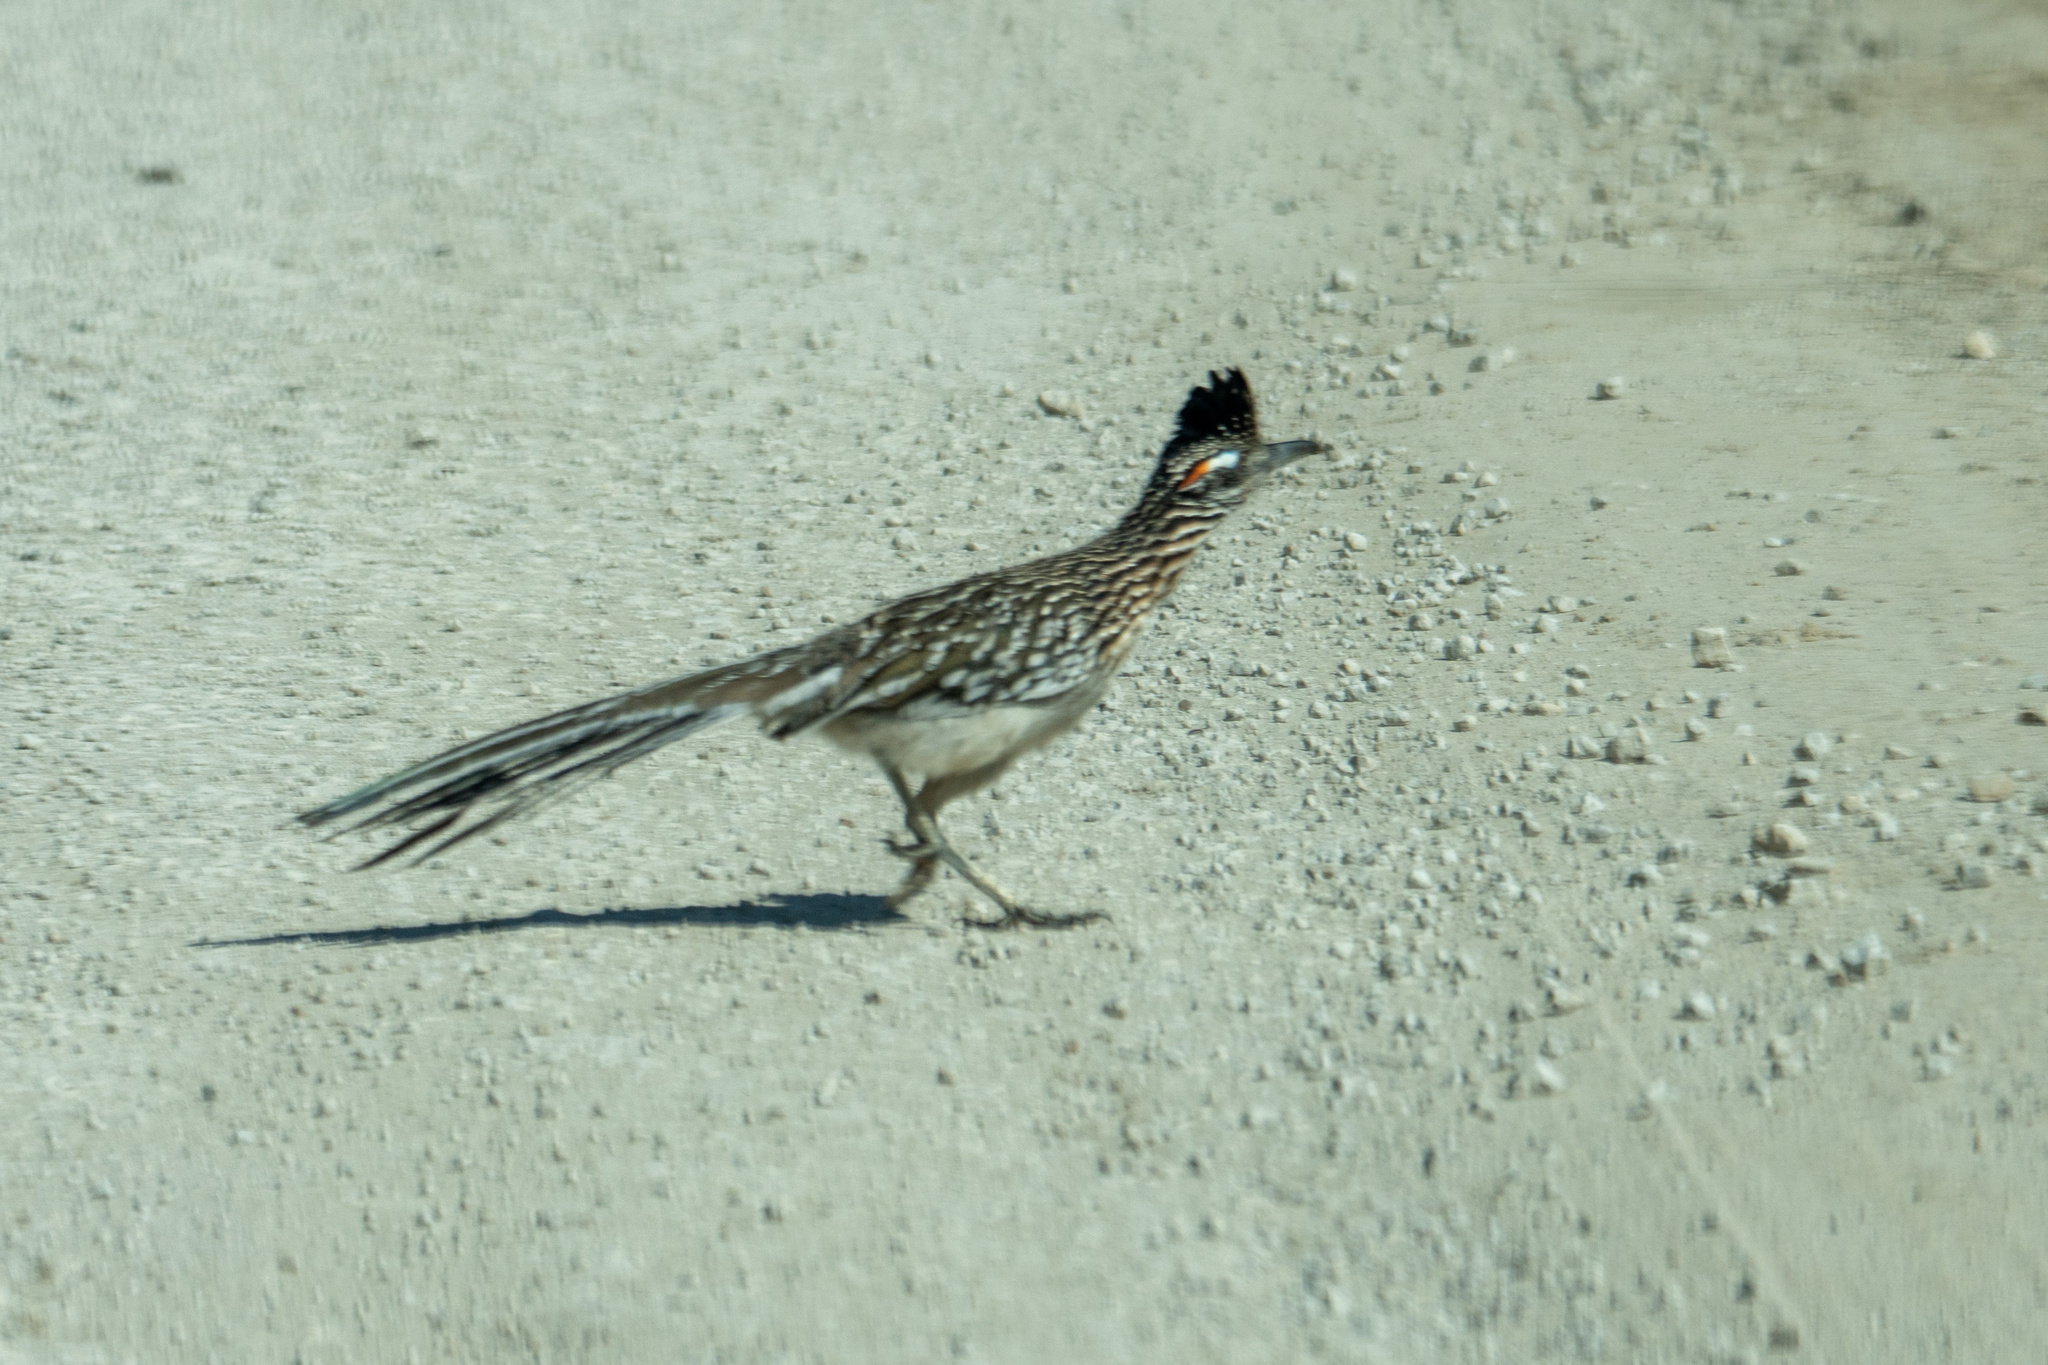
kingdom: Animalia
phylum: Chordata
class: Aves
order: Cuculiformes
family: Cuculidae
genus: Geococcyx
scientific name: Geococcyx californianus
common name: Greater roadrunner
